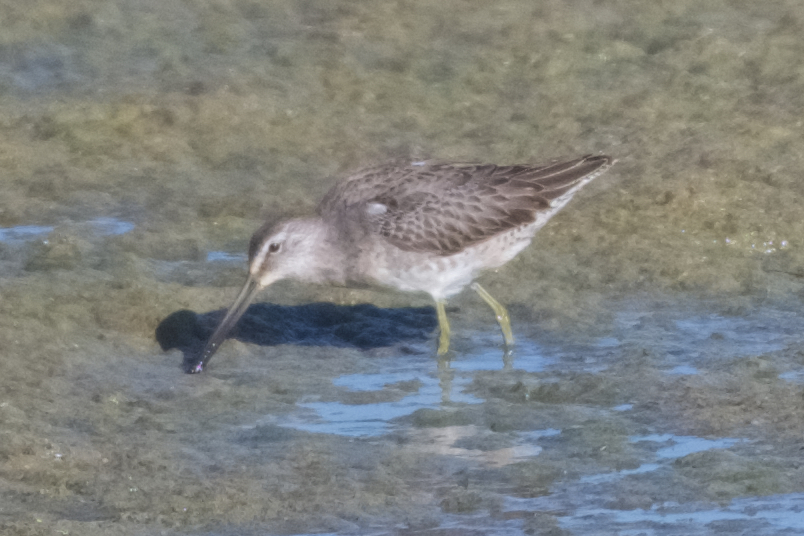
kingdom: Animalia
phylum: Chordata
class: Aves
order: Charadriiformes
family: Scolopacidae
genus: Limnodromus
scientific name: Limnodromus scolopaceus
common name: Long-billed dowitcher
